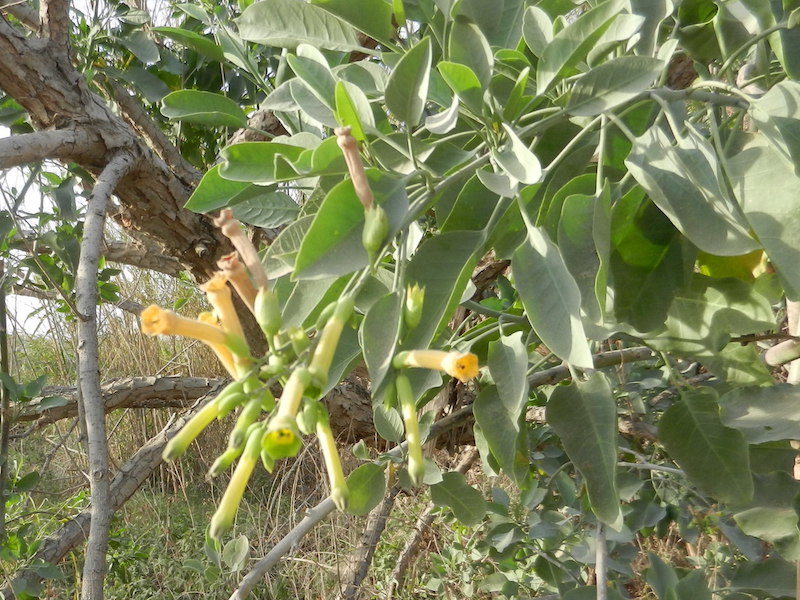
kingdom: Plantae
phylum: Tracheophyta
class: Magnoliopsida
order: Solanales
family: Solanaceae
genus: Nicotiana
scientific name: Nicotiana glauca
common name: Tree tobacco
